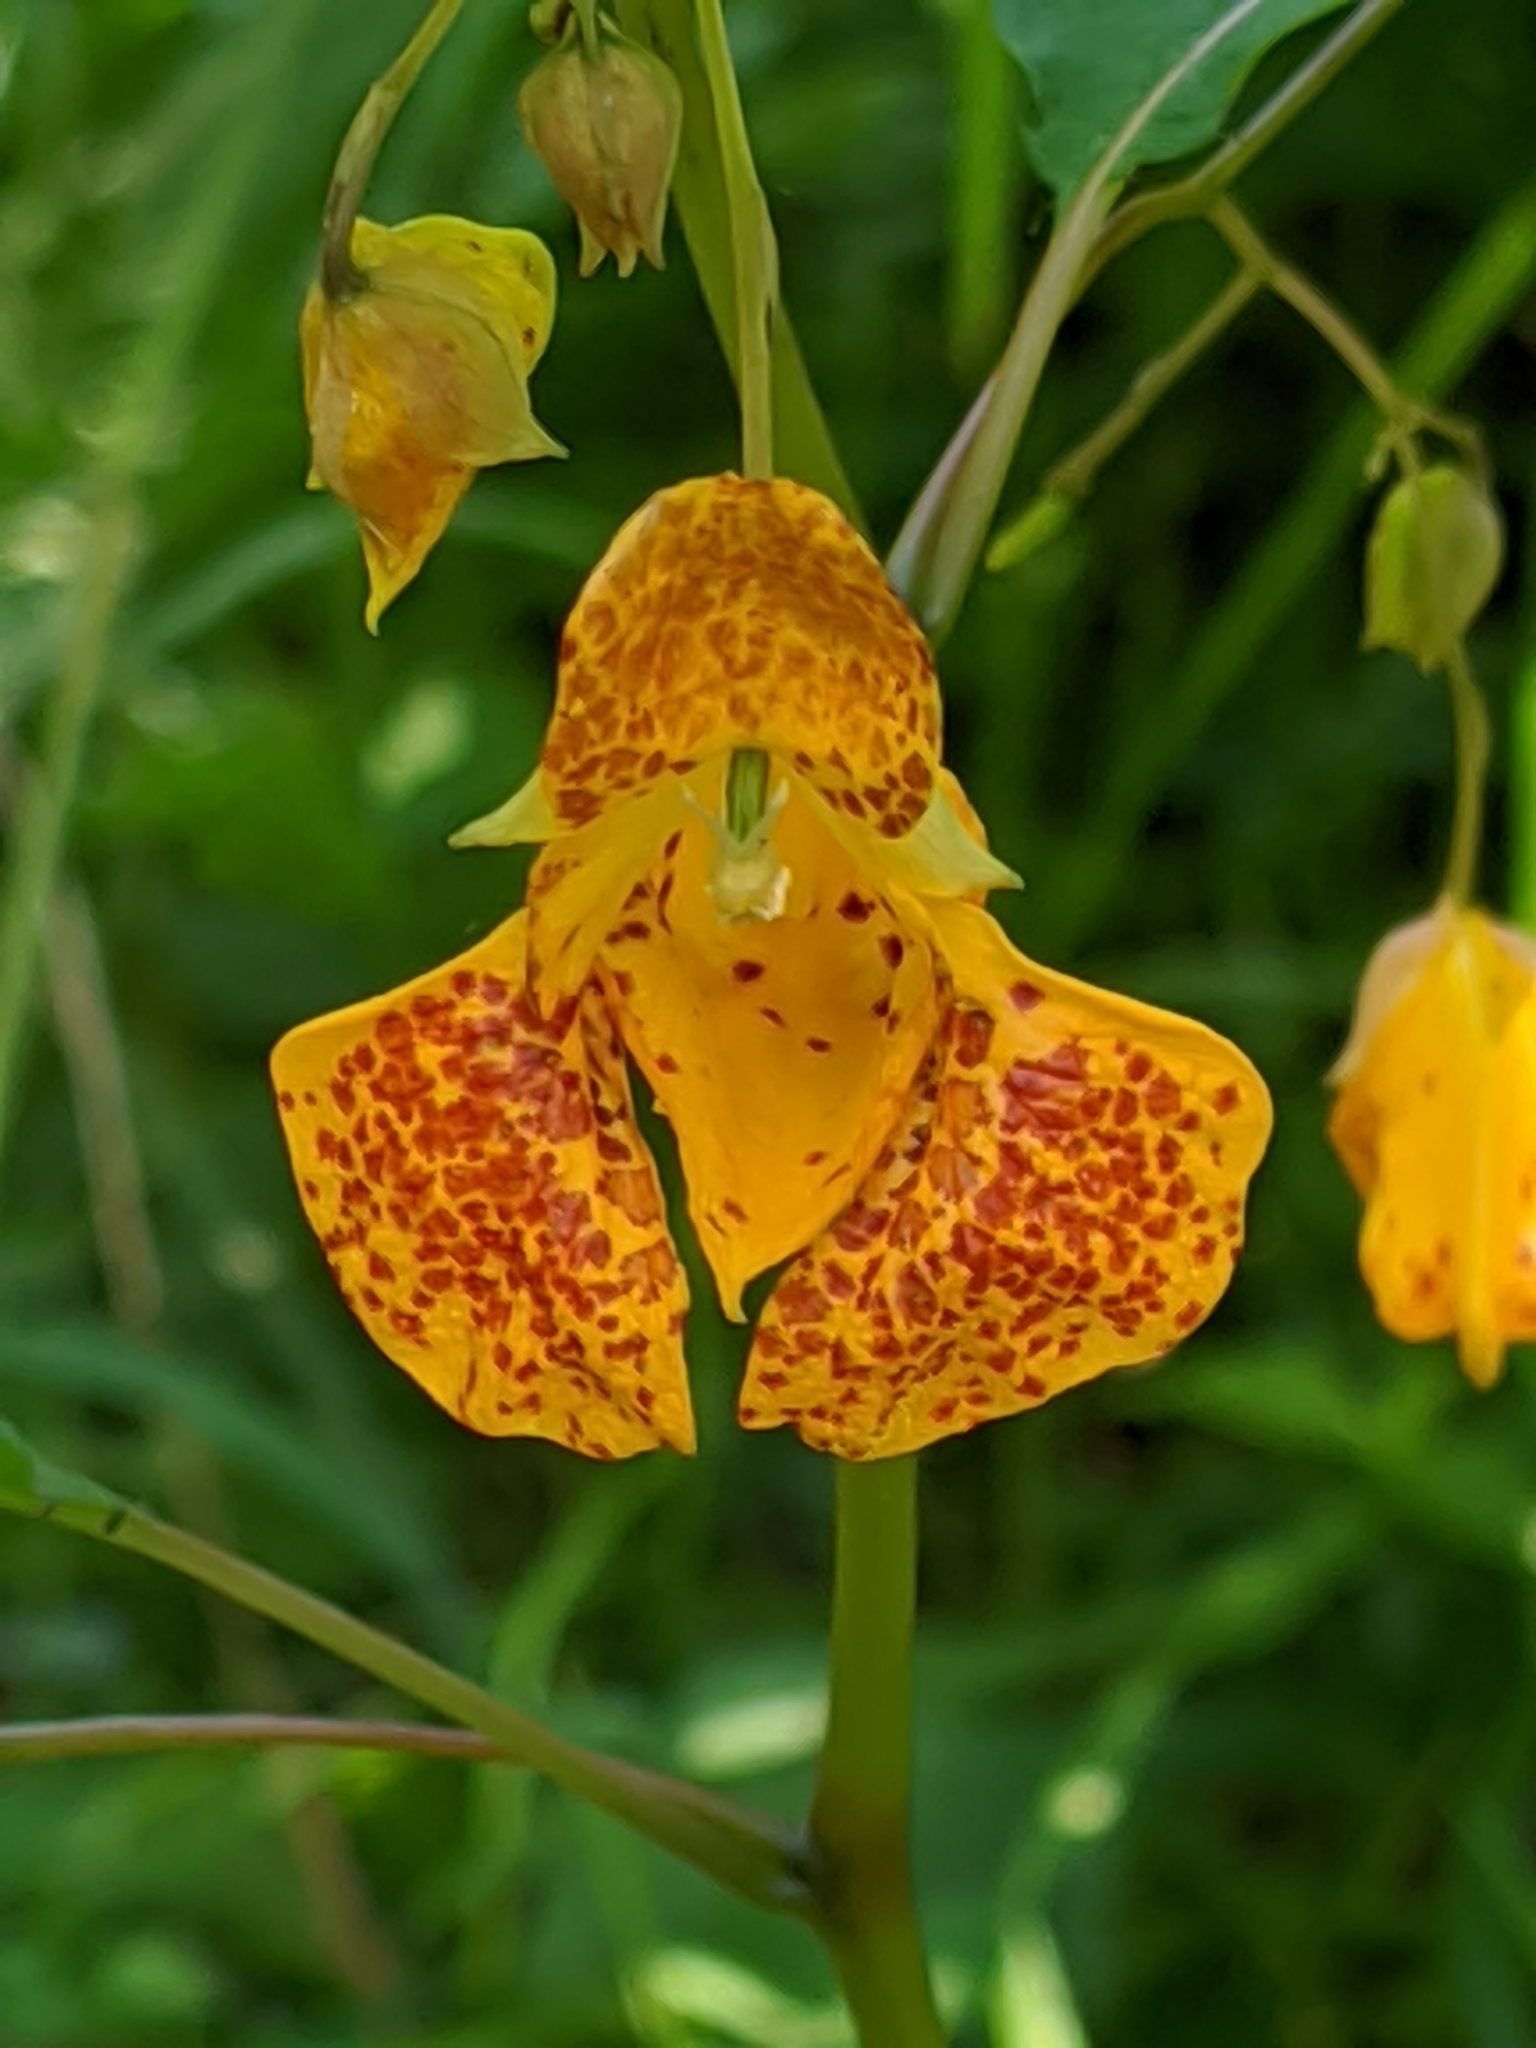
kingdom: Plantae
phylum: Tracheophyta
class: Magnoliopsida
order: Ericales
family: Balsaminaceae
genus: Impatiens
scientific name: Impatiens capensis
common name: Orange balsam
